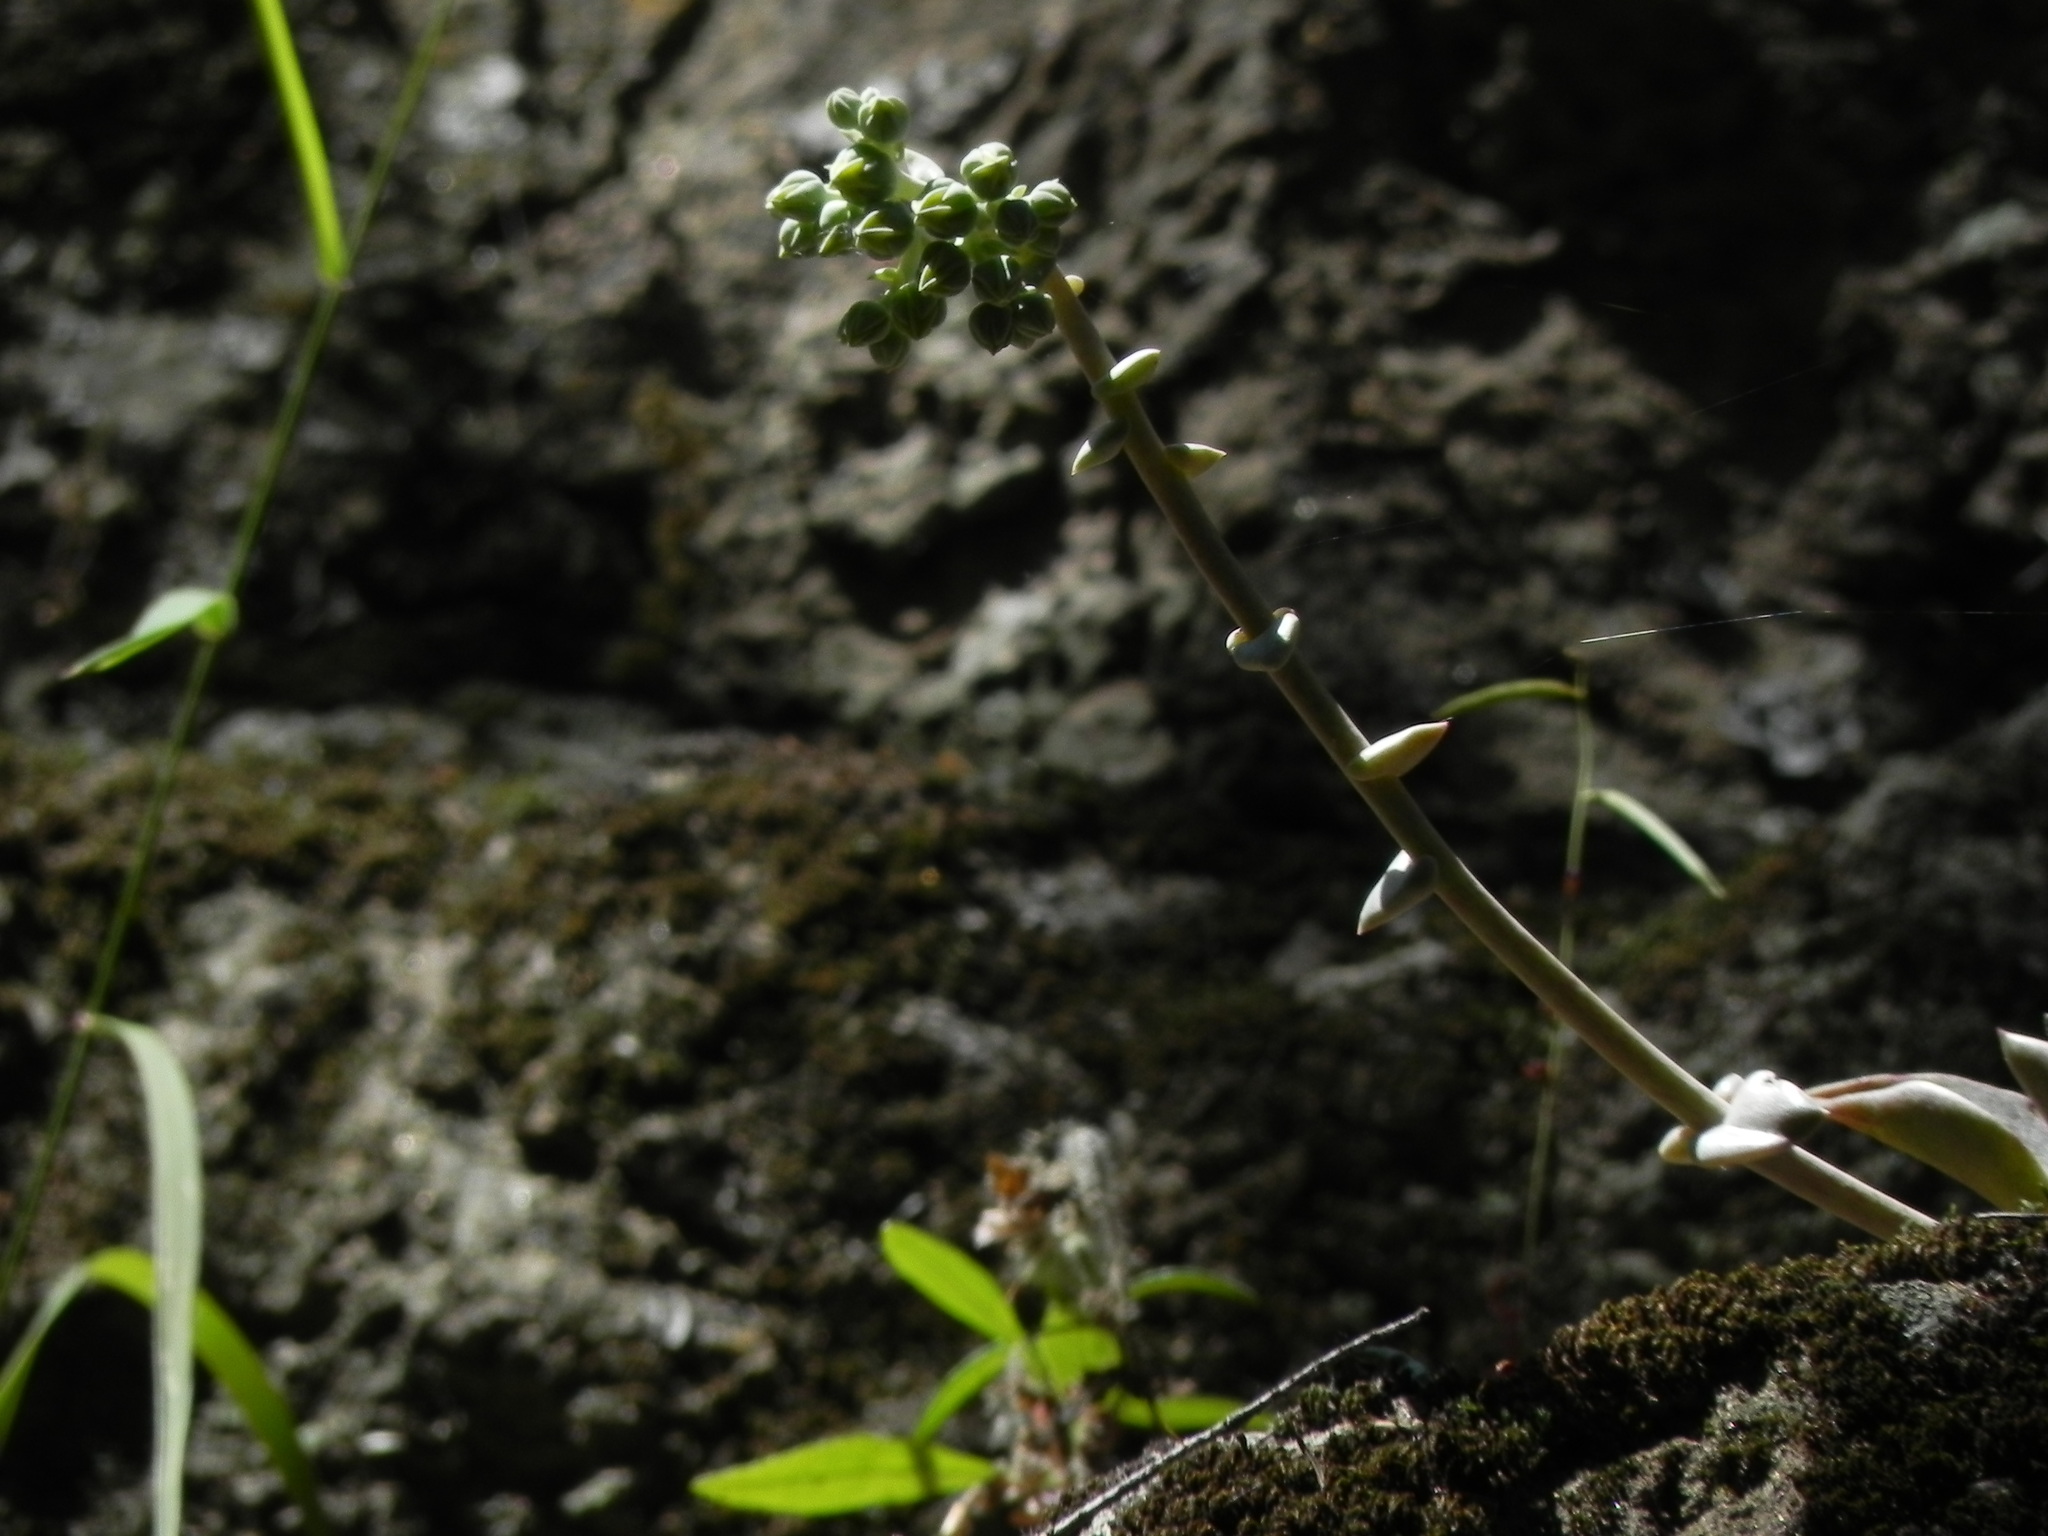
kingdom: Plantae
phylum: Tracheophyta
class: Magnoliopsida
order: Saxifragales
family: Crassulaceae
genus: Dudleya
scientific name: Dudleya cymosa
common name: Canyon dudleya
